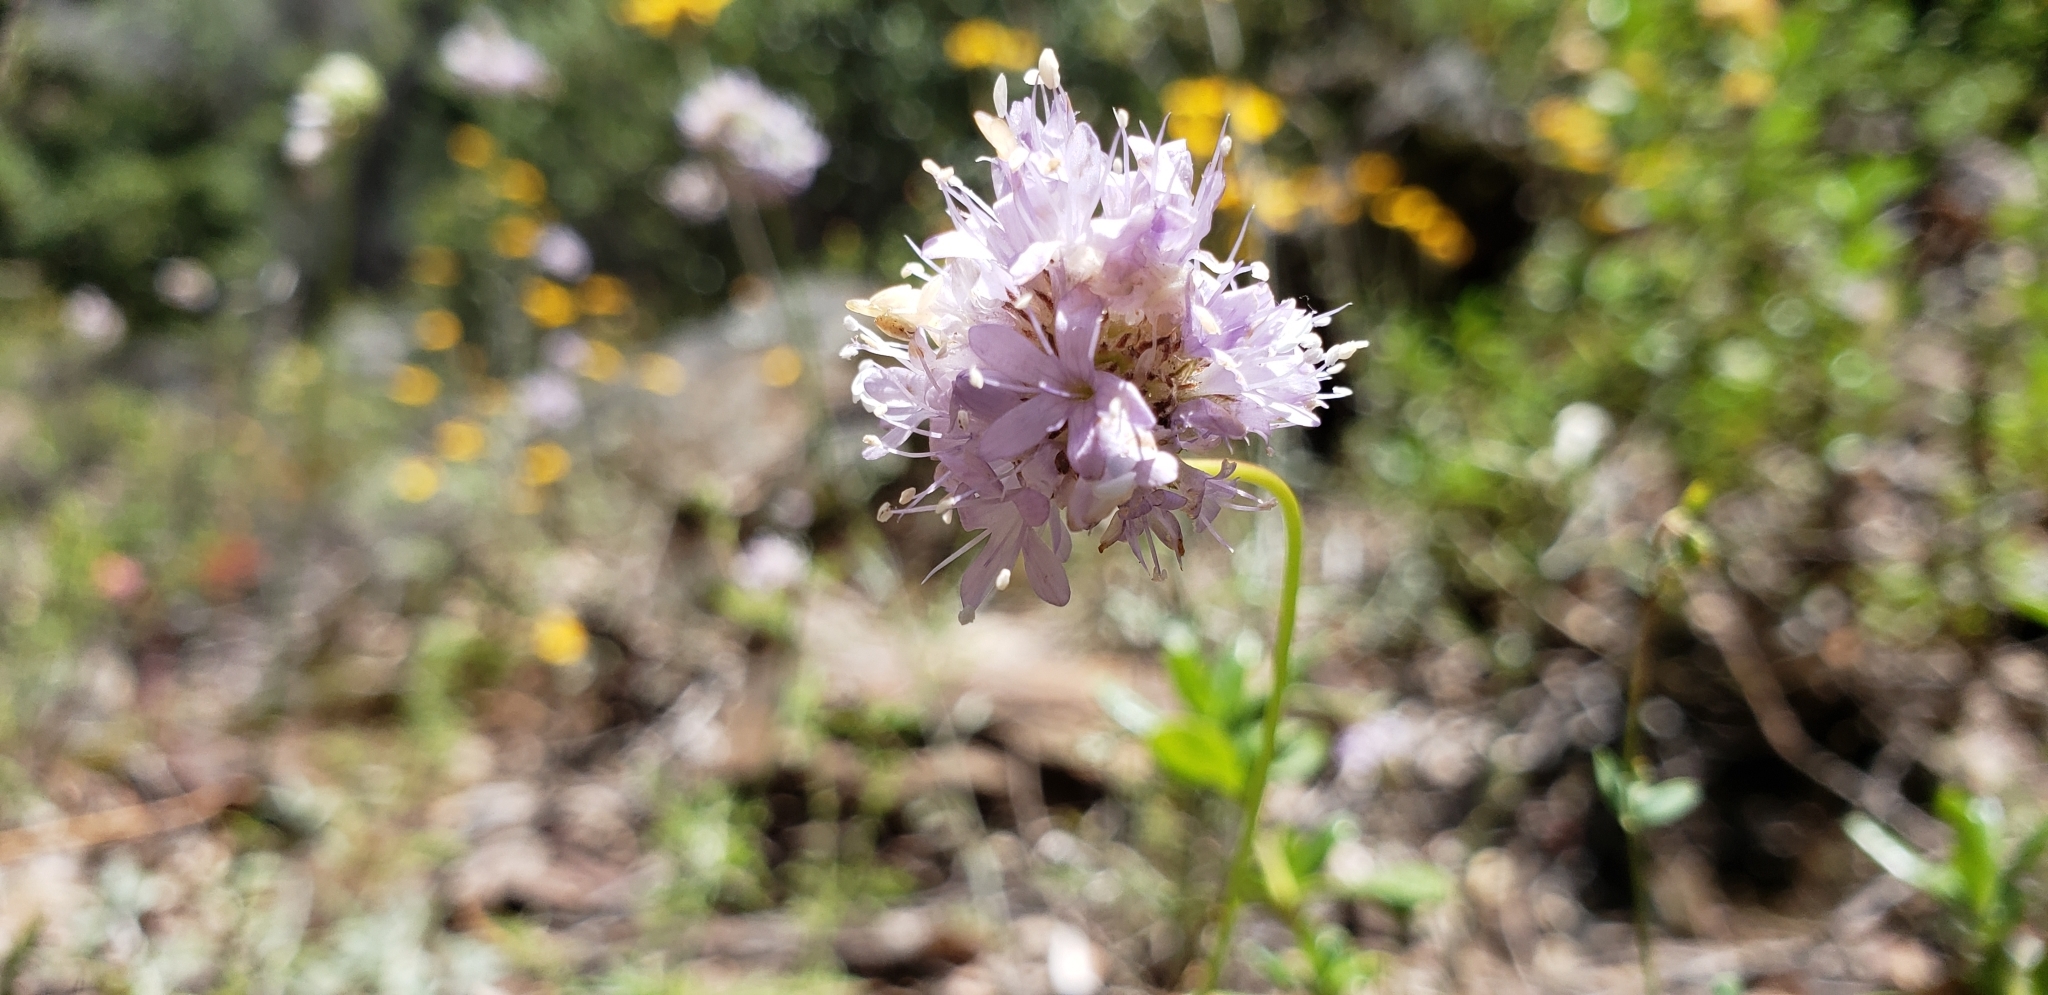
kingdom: Plantae
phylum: Tracheophyta
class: Magnoliopsida
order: Ericales
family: Polemoniaceae
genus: Gilia
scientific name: Gilia capitata
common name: Bluehead gilia
